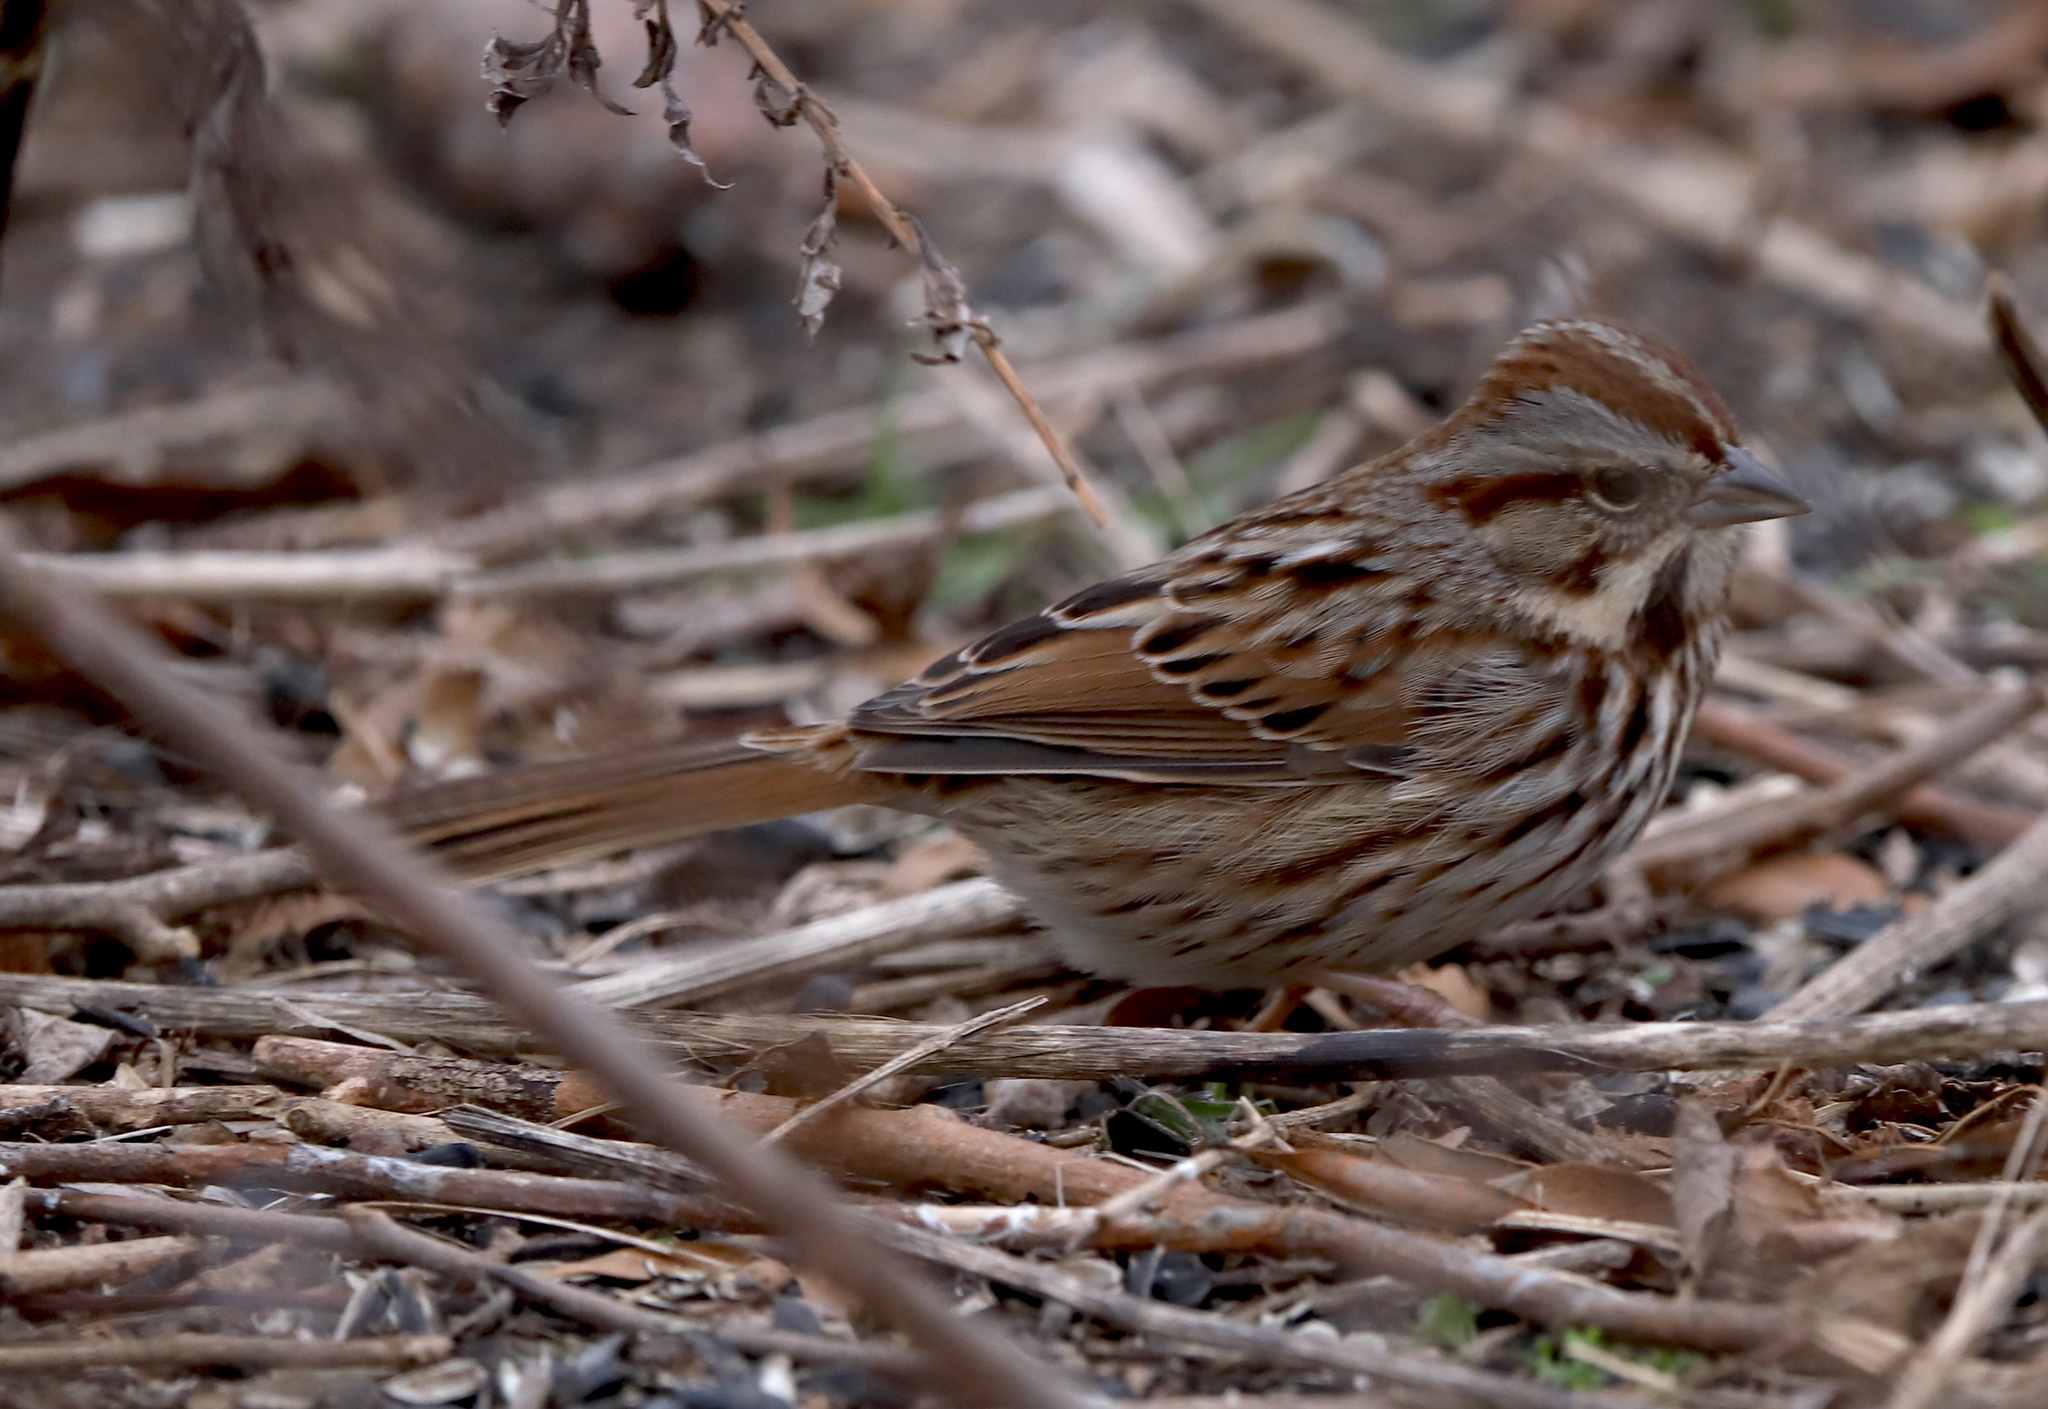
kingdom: Animalia
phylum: Chordata
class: Aves
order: Passeriformes
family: Passerellidae
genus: Melospiza
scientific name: Melospiza melodia
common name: Song sparrow
